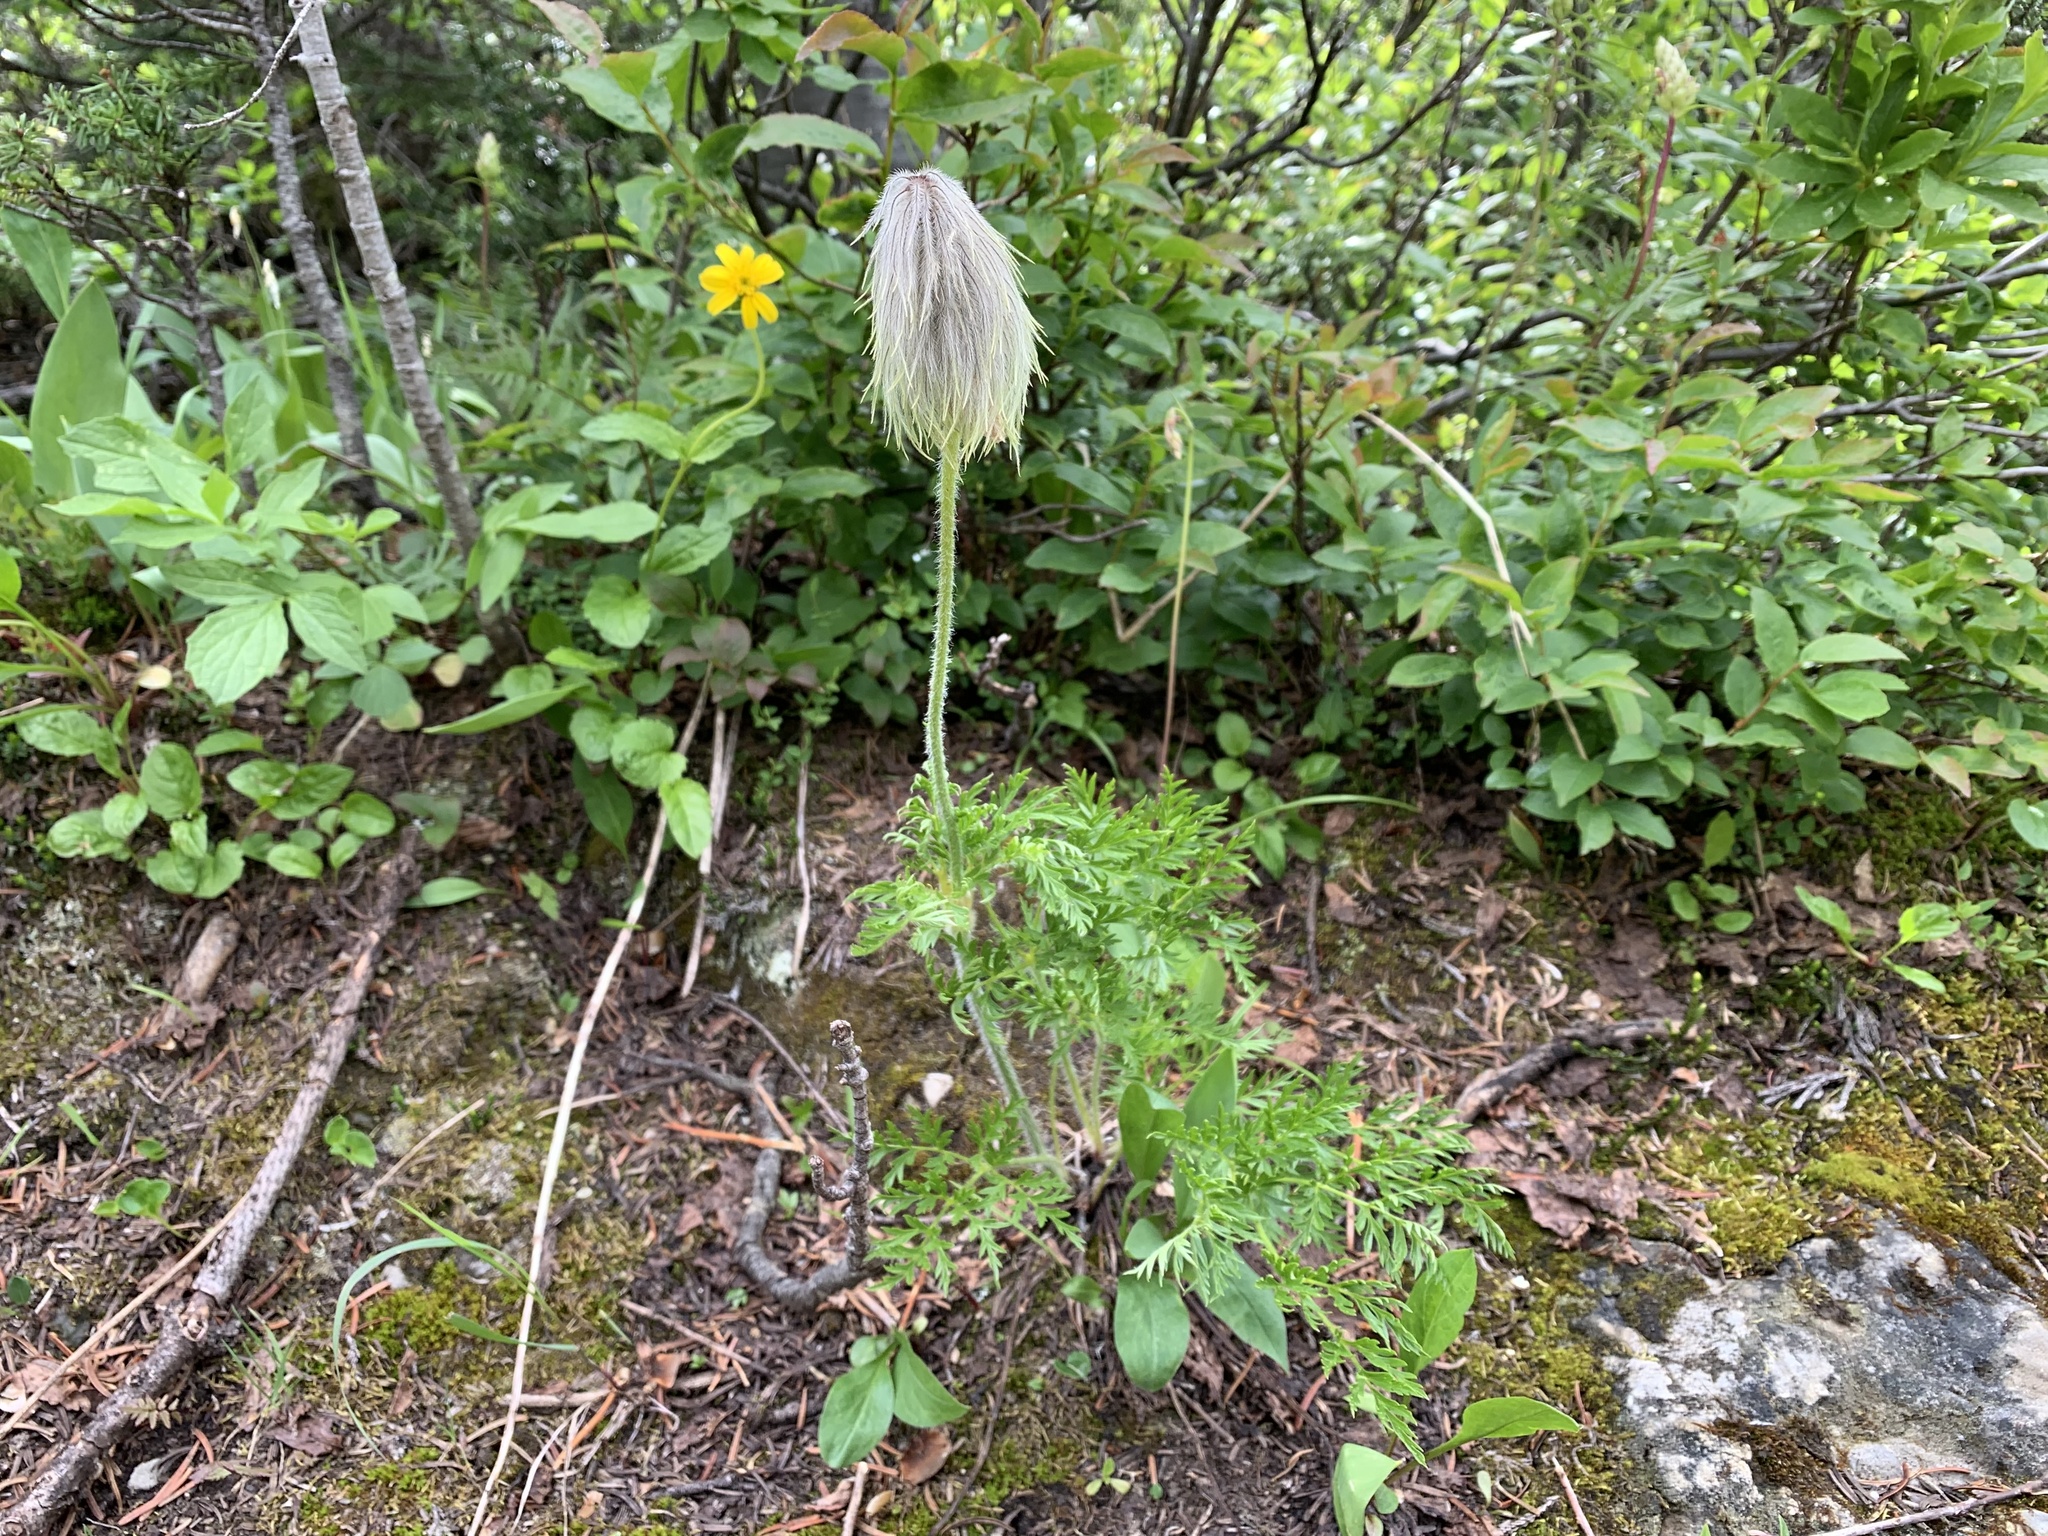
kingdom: Plantae
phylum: Tracheophyta
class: Magnoliopsida
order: Ranunculales
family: Ranunculaceae
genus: Pulsatilla
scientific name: Pulsatilla occidentalis
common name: Mountain pasqueflower
